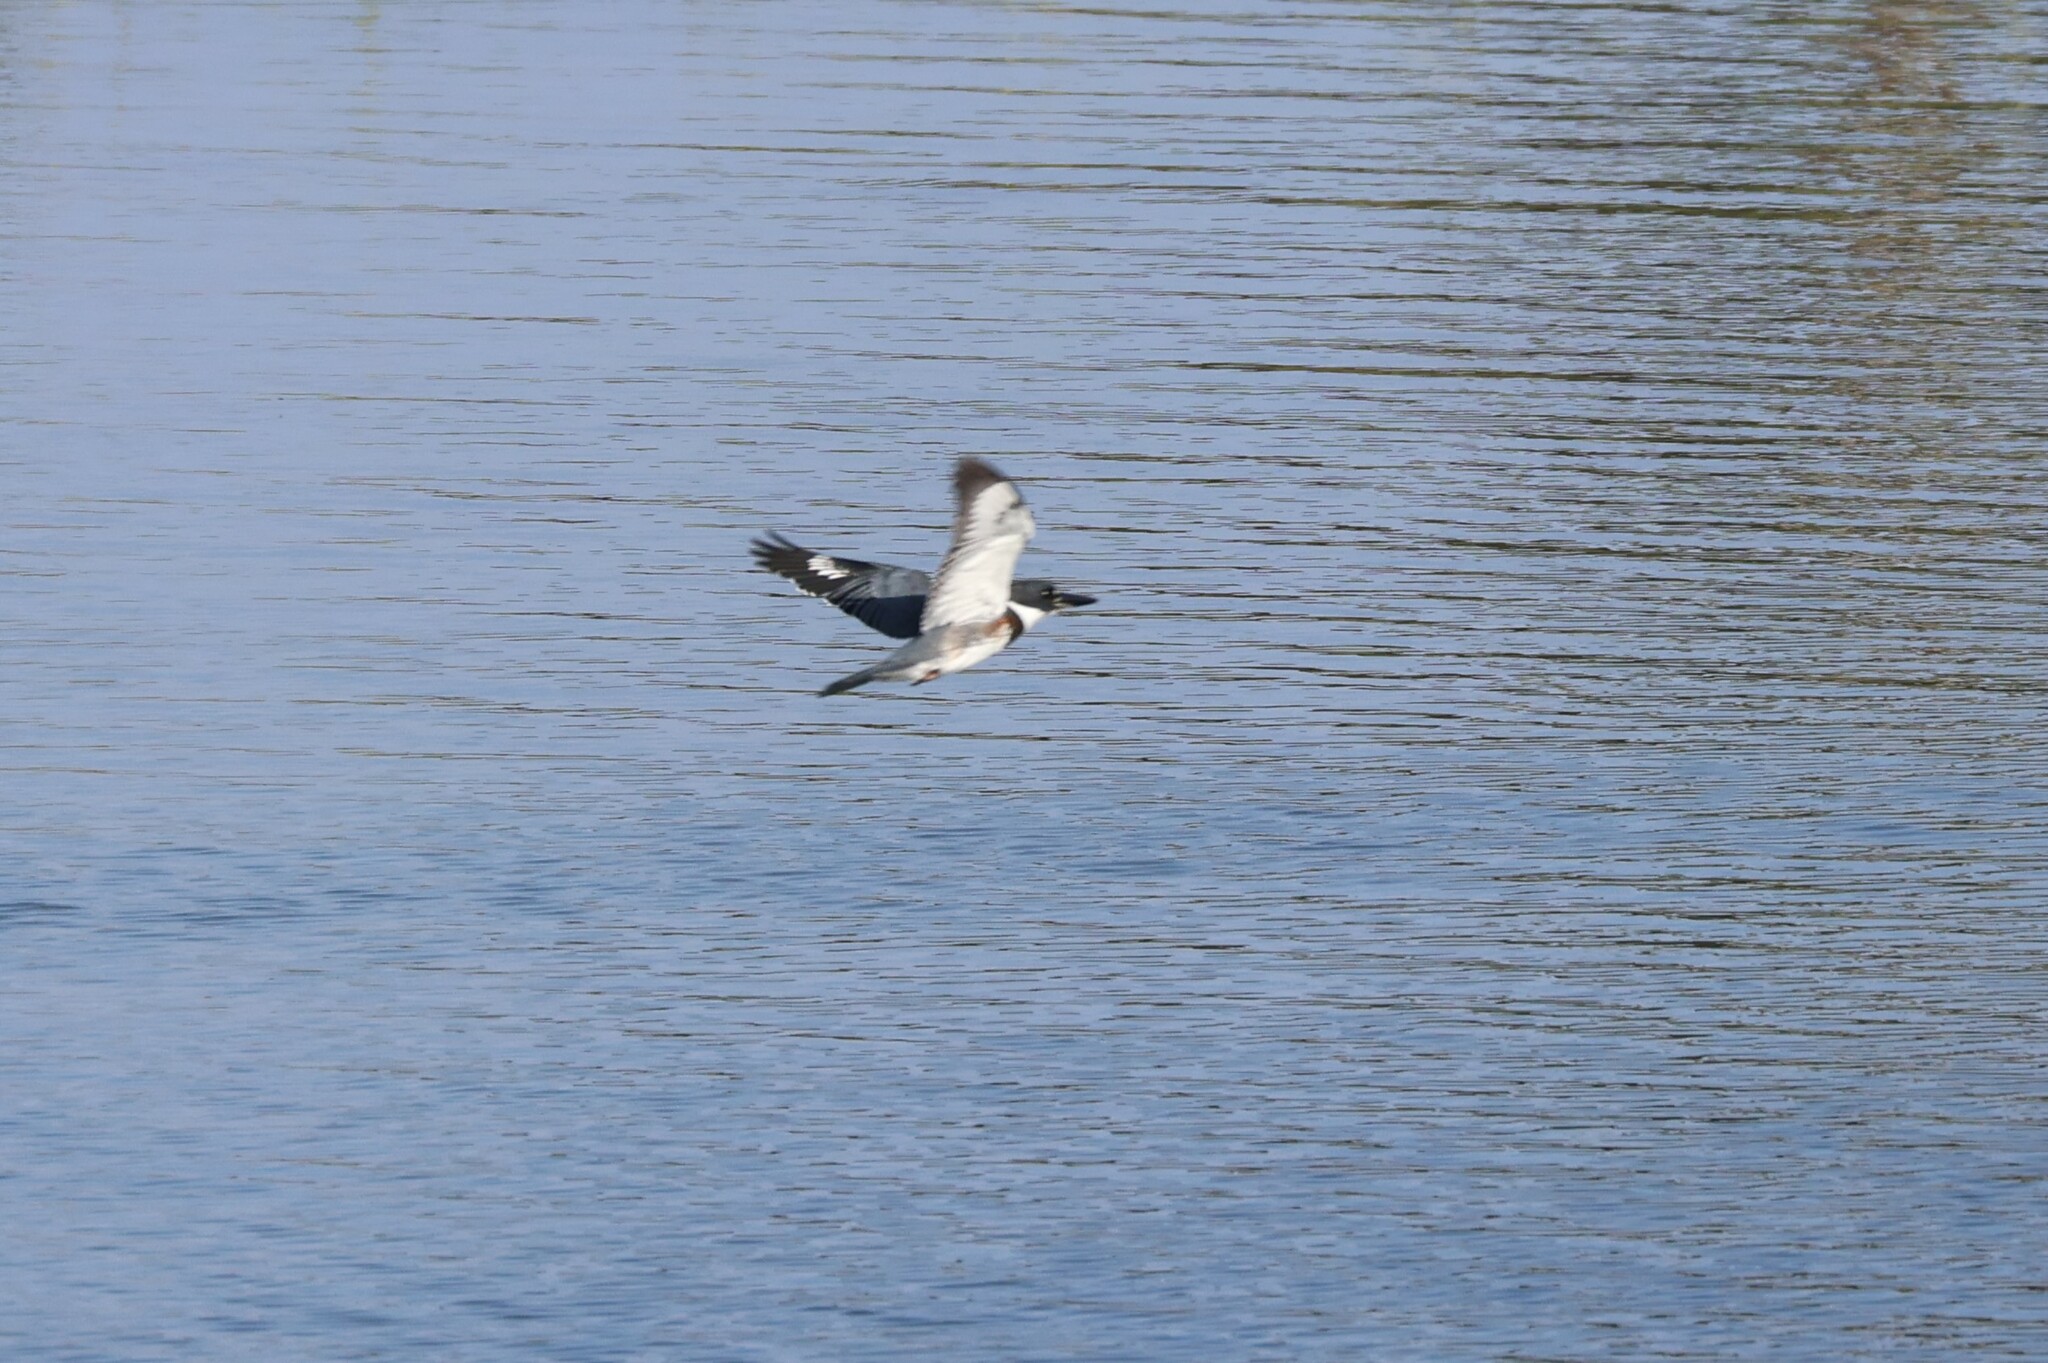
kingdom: Animalia
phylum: Chordata
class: Aves
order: Coraciiformes
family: Alcedinidae
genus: Megaceryle
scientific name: Megaceryle alcyon
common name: Belted kingfisher
